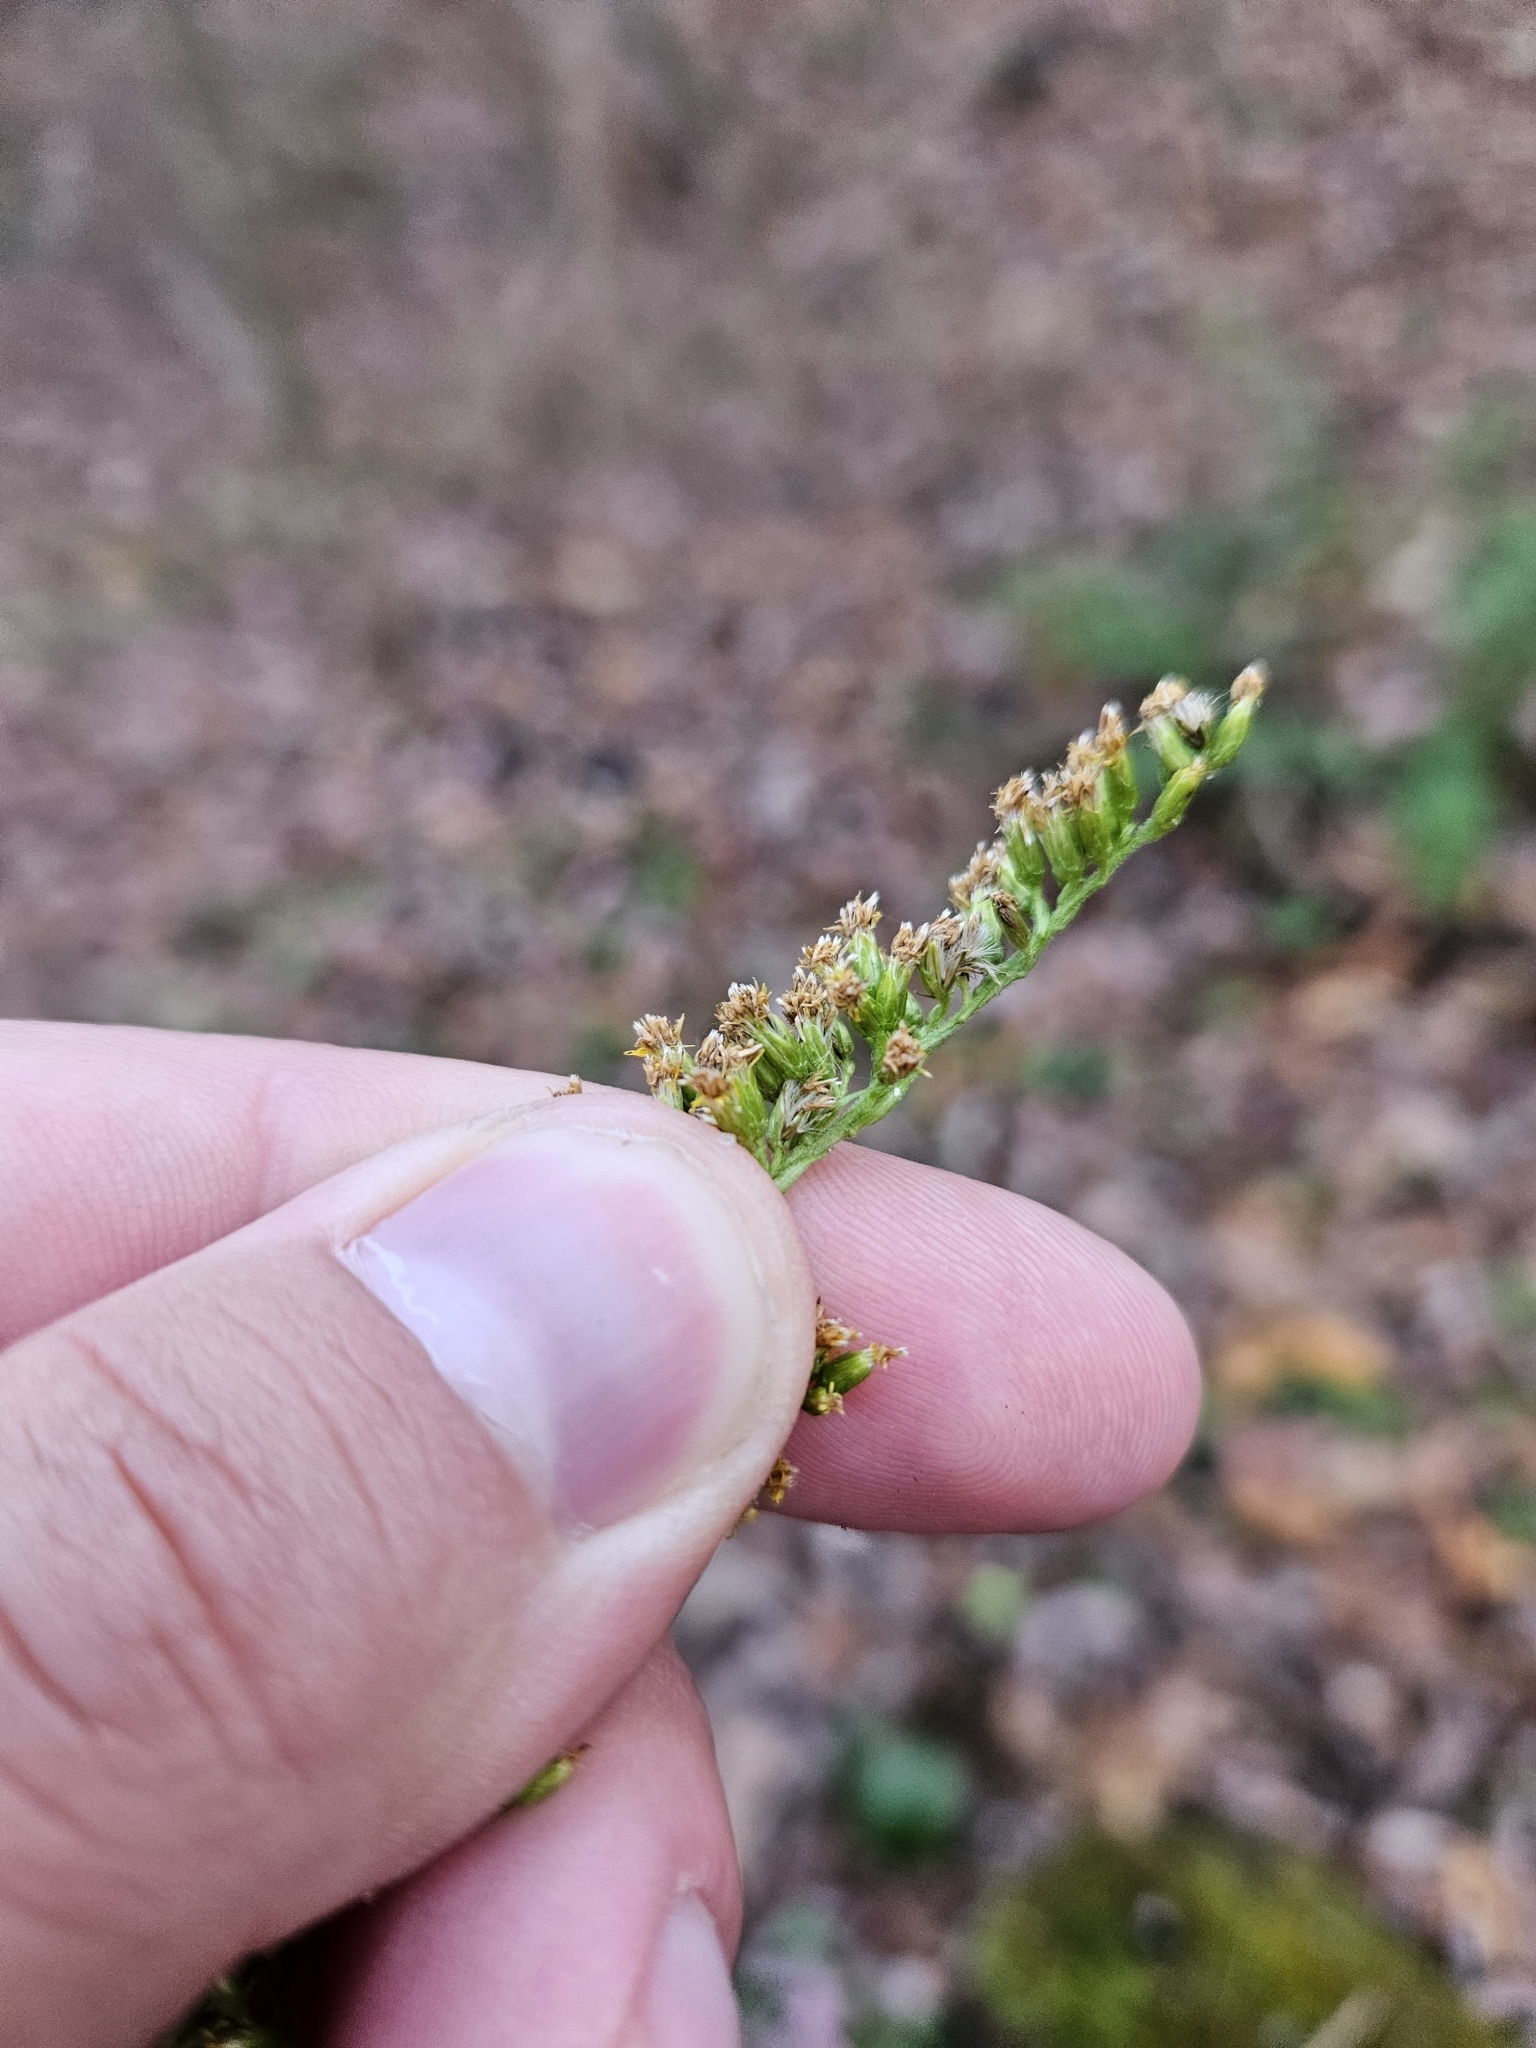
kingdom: Plantae
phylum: Tracheophyta
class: Magnoliopsida
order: Asterales
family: Asteraceae
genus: Solidago
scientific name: Solidago canadensis
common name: Canada goldenrod
